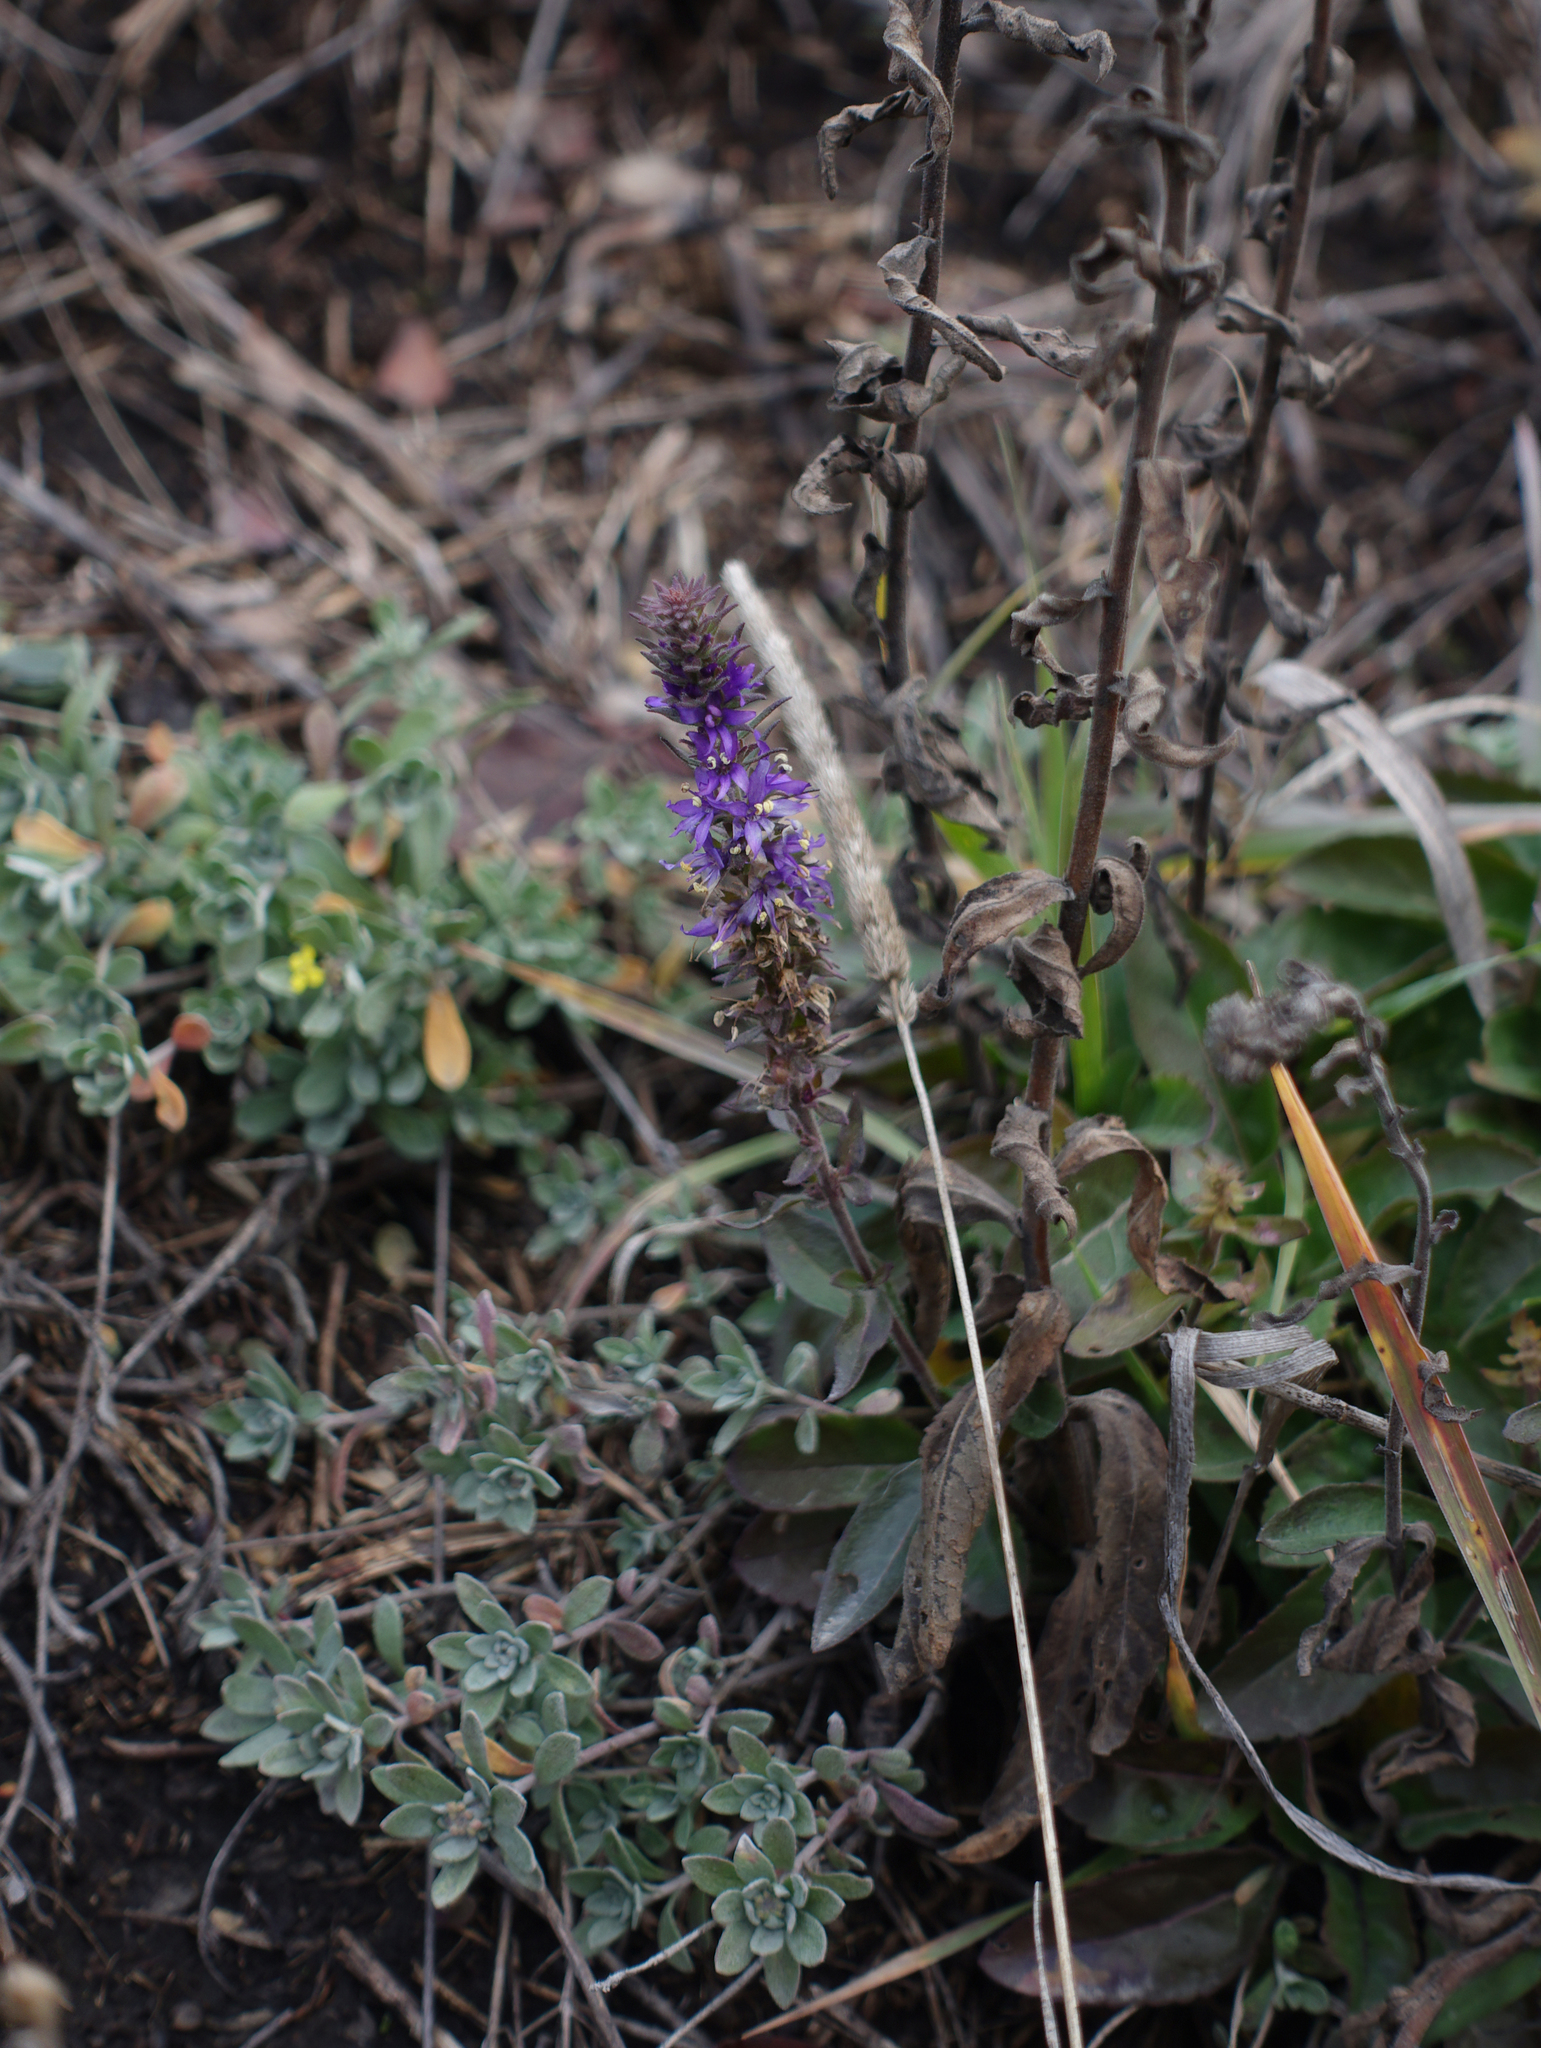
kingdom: Plantae
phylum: Tracheophyta
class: Magnoliopsida
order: Lamiales
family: Plantaginaceae
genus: Veronica
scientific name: Veronica incana
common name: Silver speedwell
